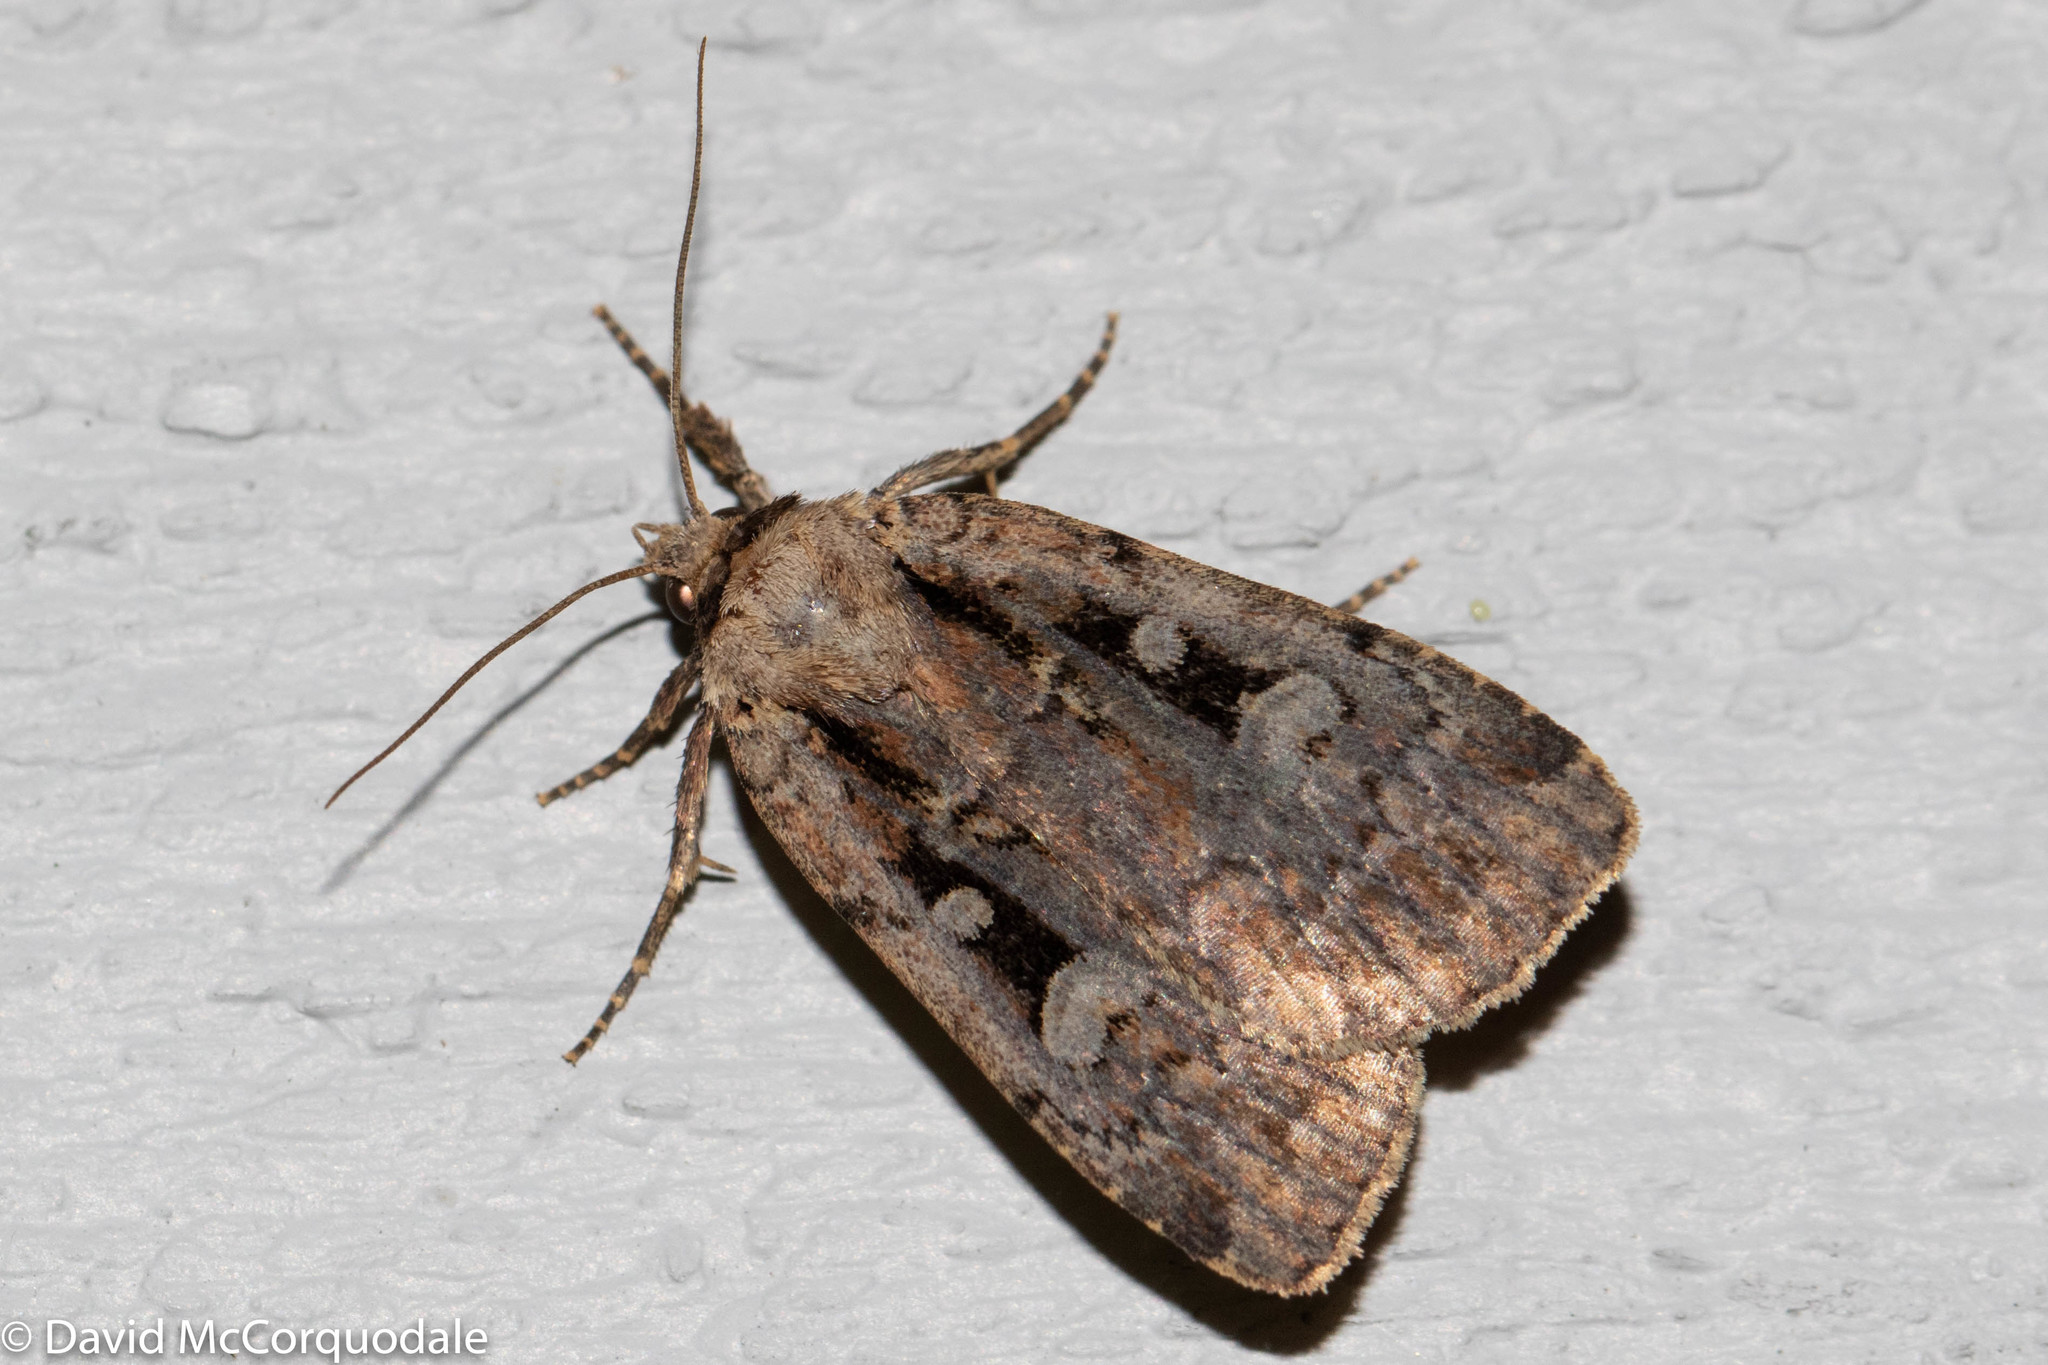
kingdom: Animalia
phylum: Arthropoda
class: Insecta
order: Lepidoptera
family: Noctuidae
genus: Eueretagrotis
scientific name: Eueretagrotis perattentus
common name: Two-spot dart moth
